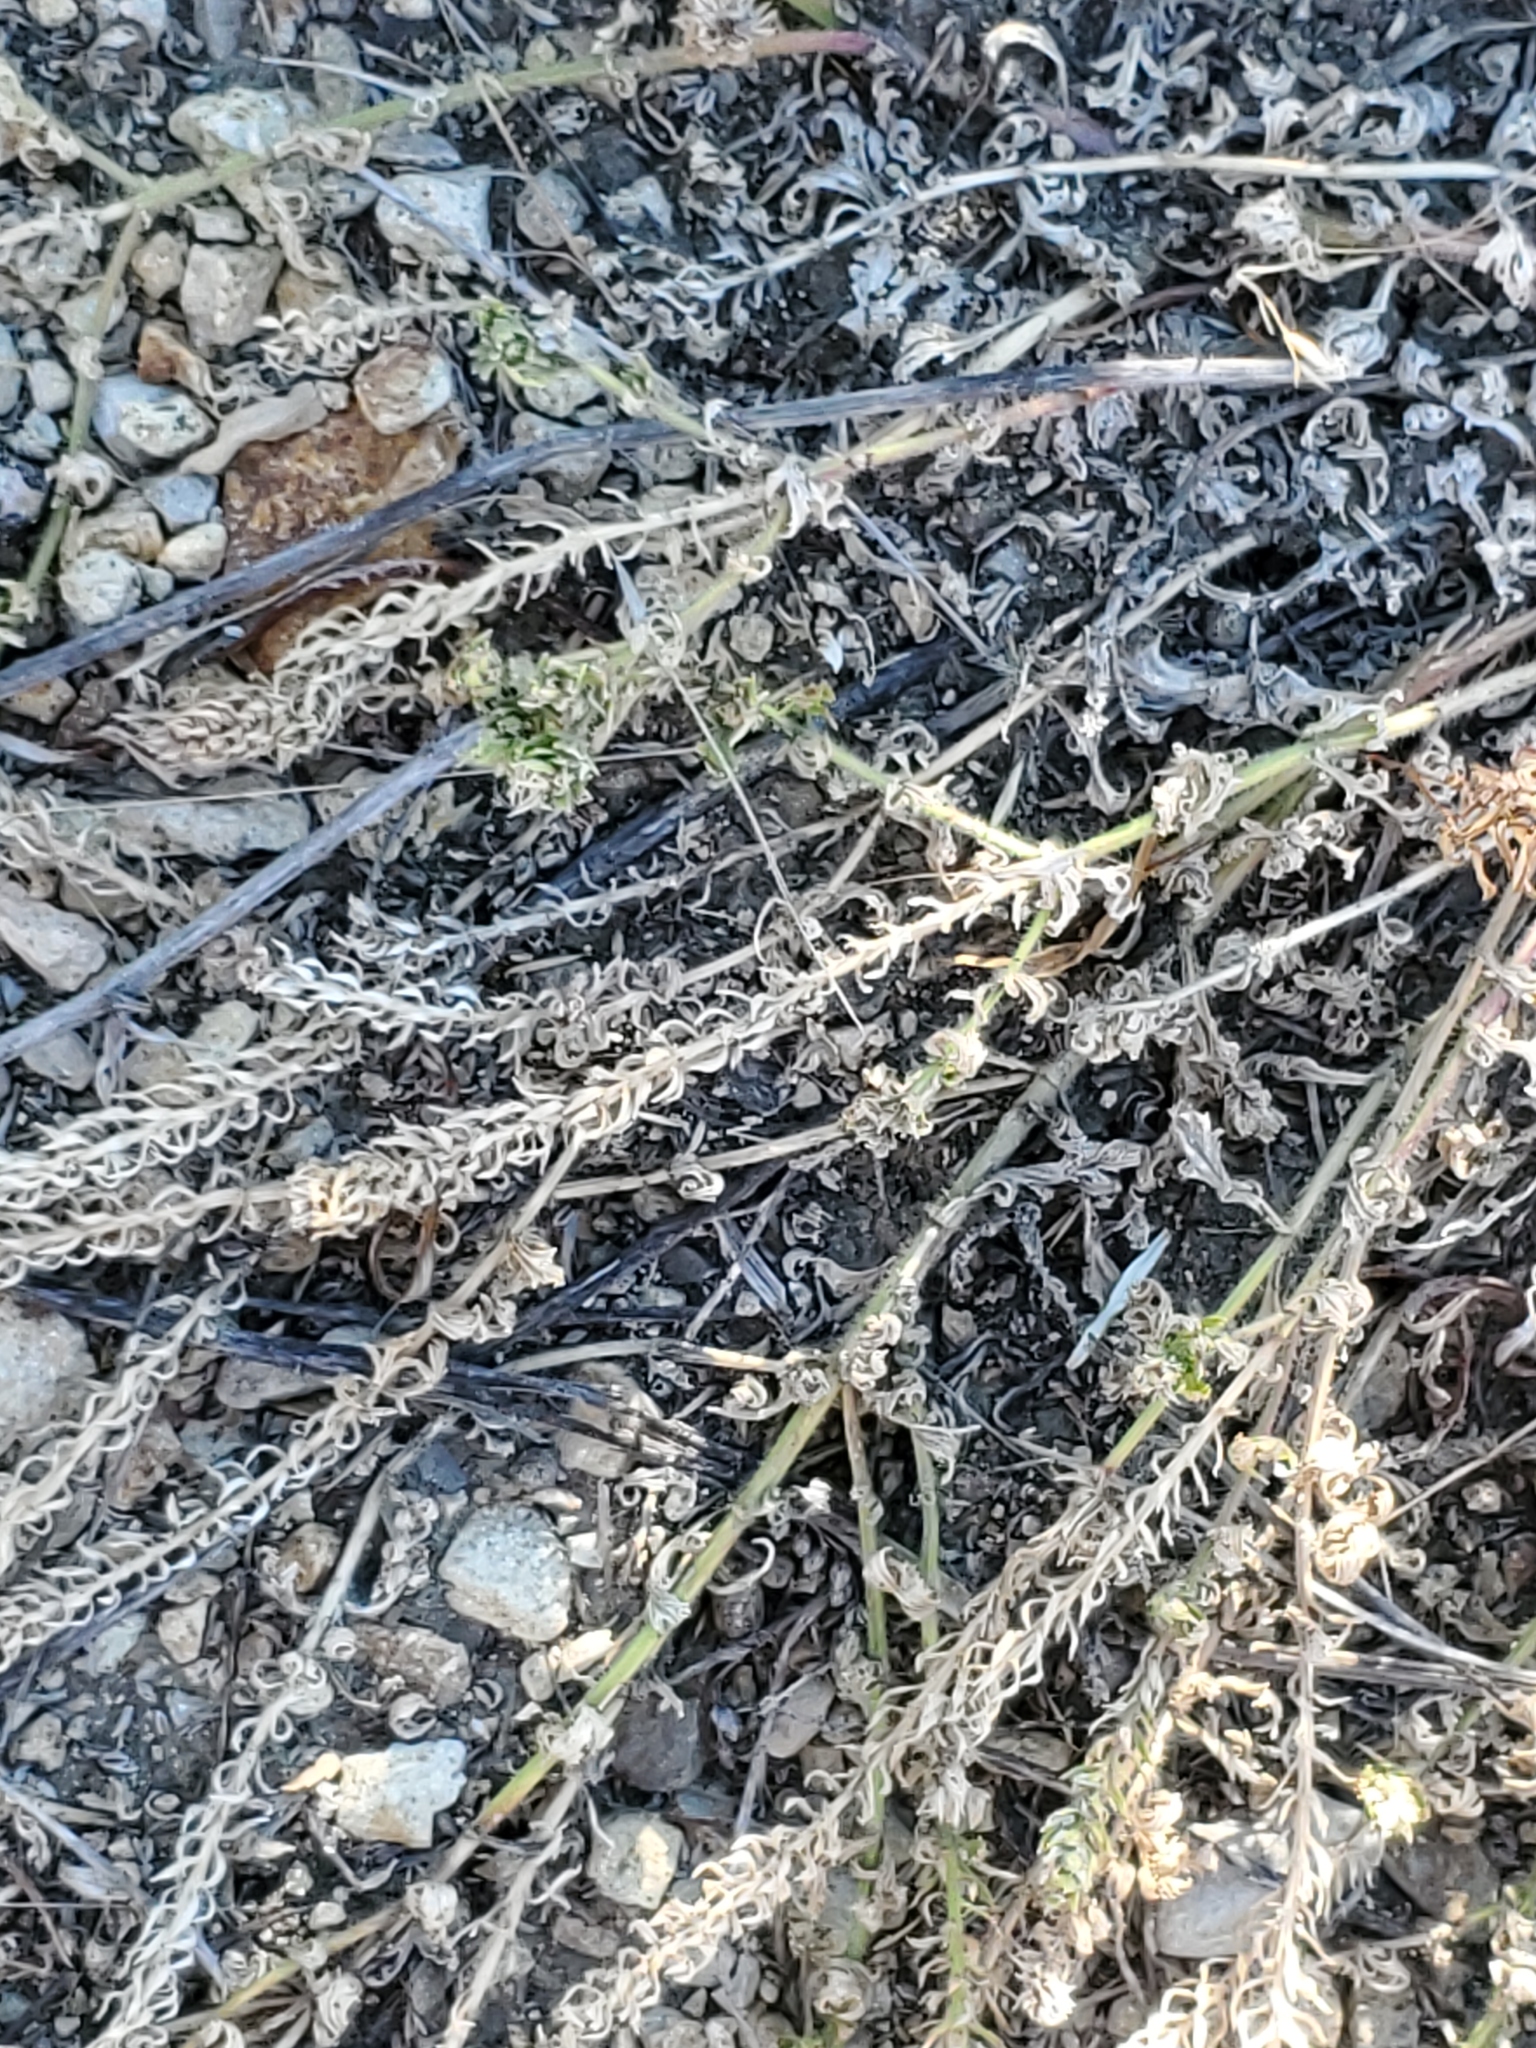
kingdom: Plantae
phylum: Tracheophyta
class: Magnoliopsida
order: Lamiales
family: Verbenaceae
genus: Verbena
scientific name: Verbena bracteata
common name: Bracted vervain
